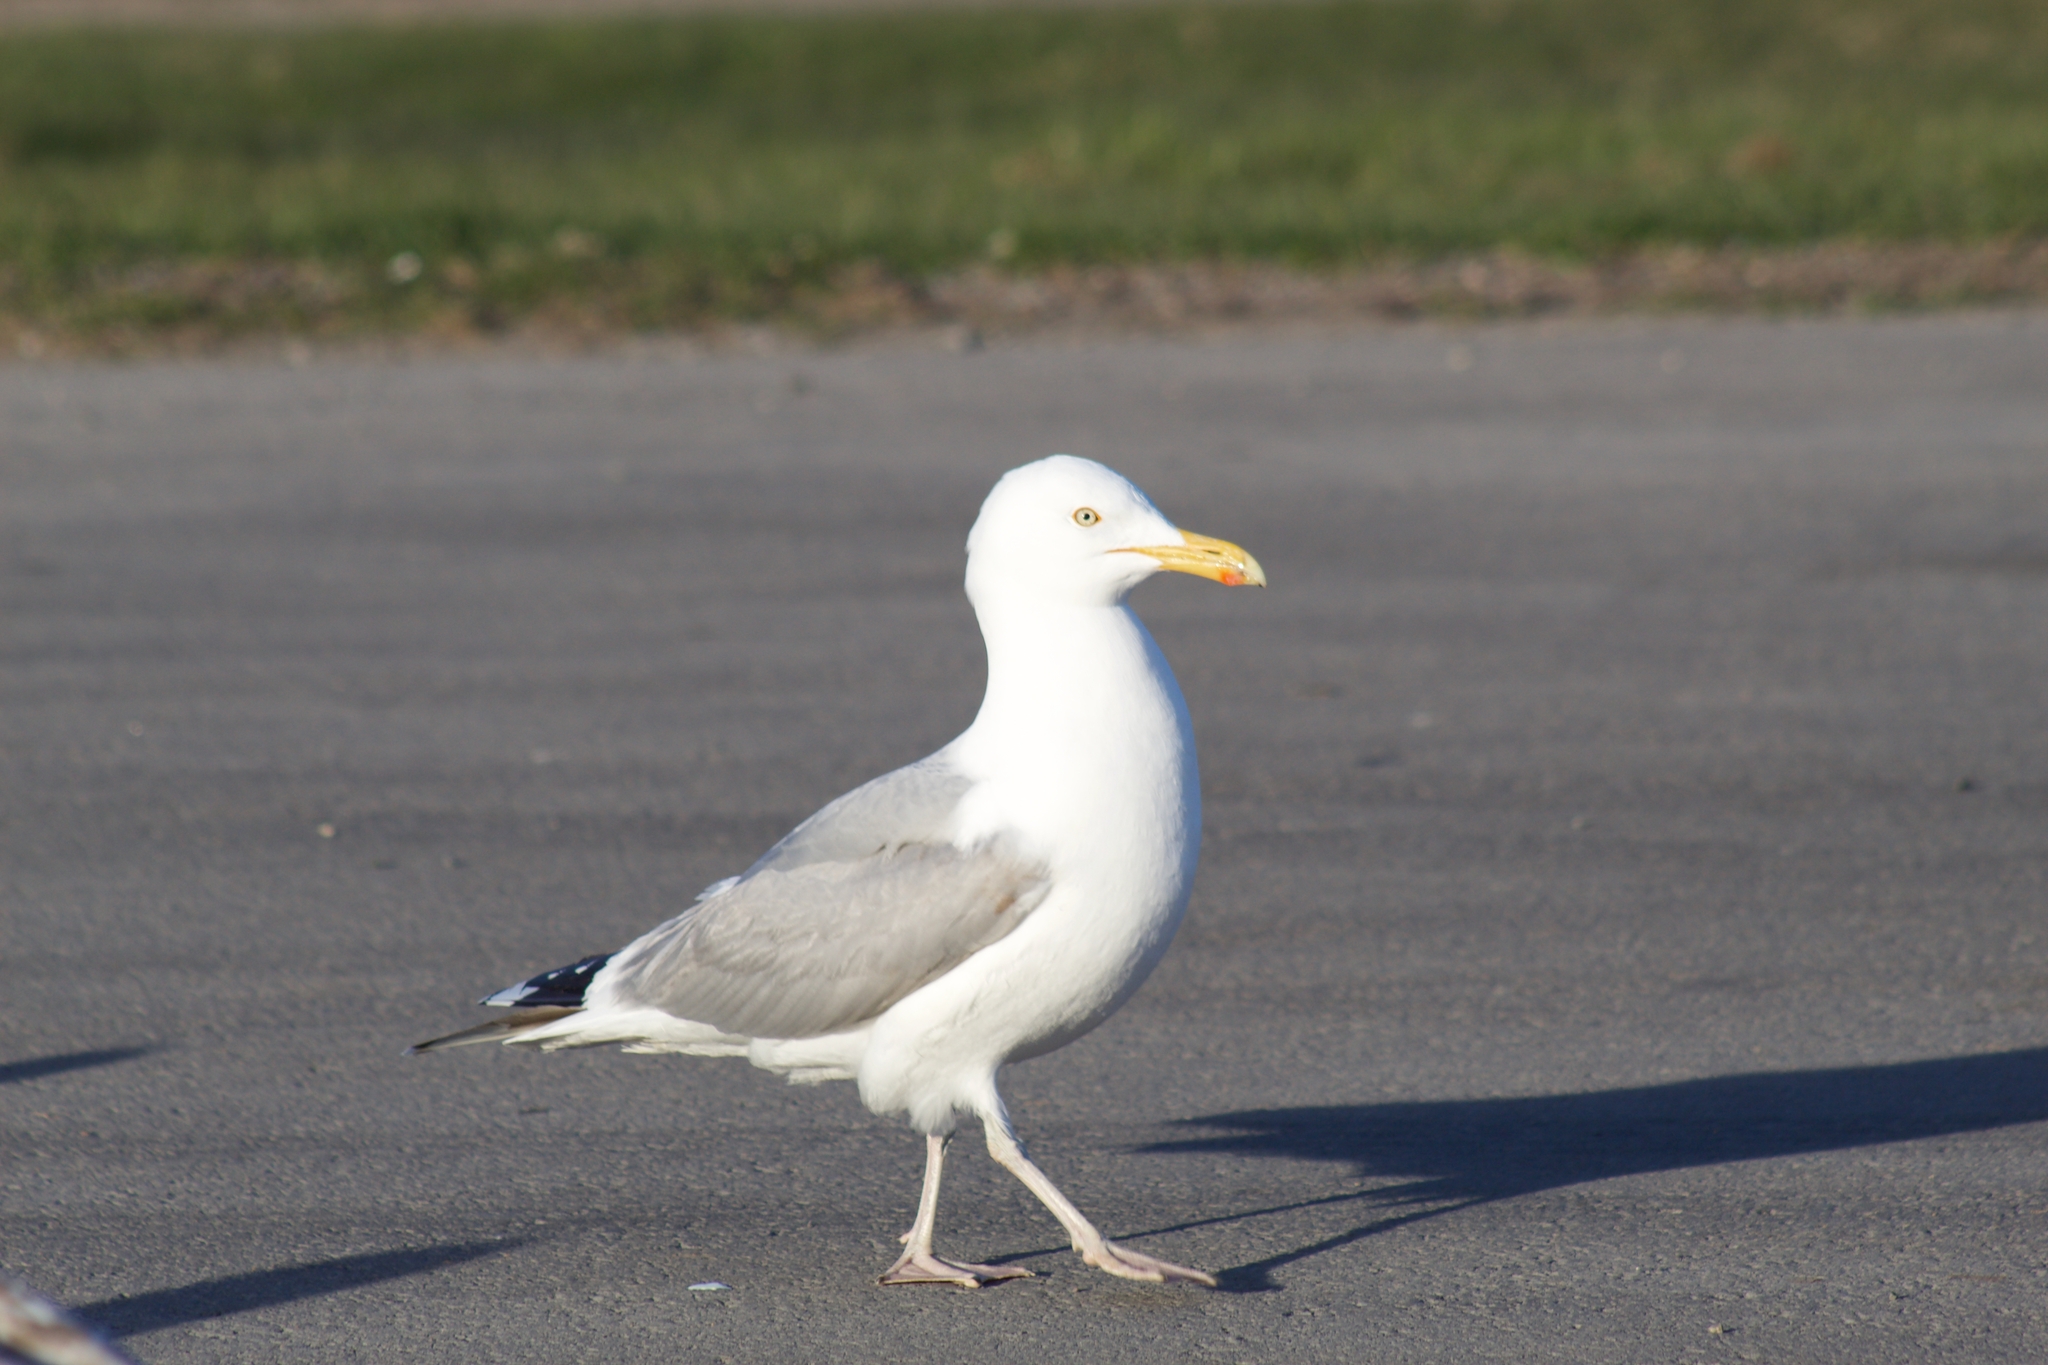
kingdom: Animalia
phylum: Chordata
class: Aves
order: Charadriiformes
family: Laridae
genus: Larus
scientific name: Larus argentatus
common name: Herring gull
